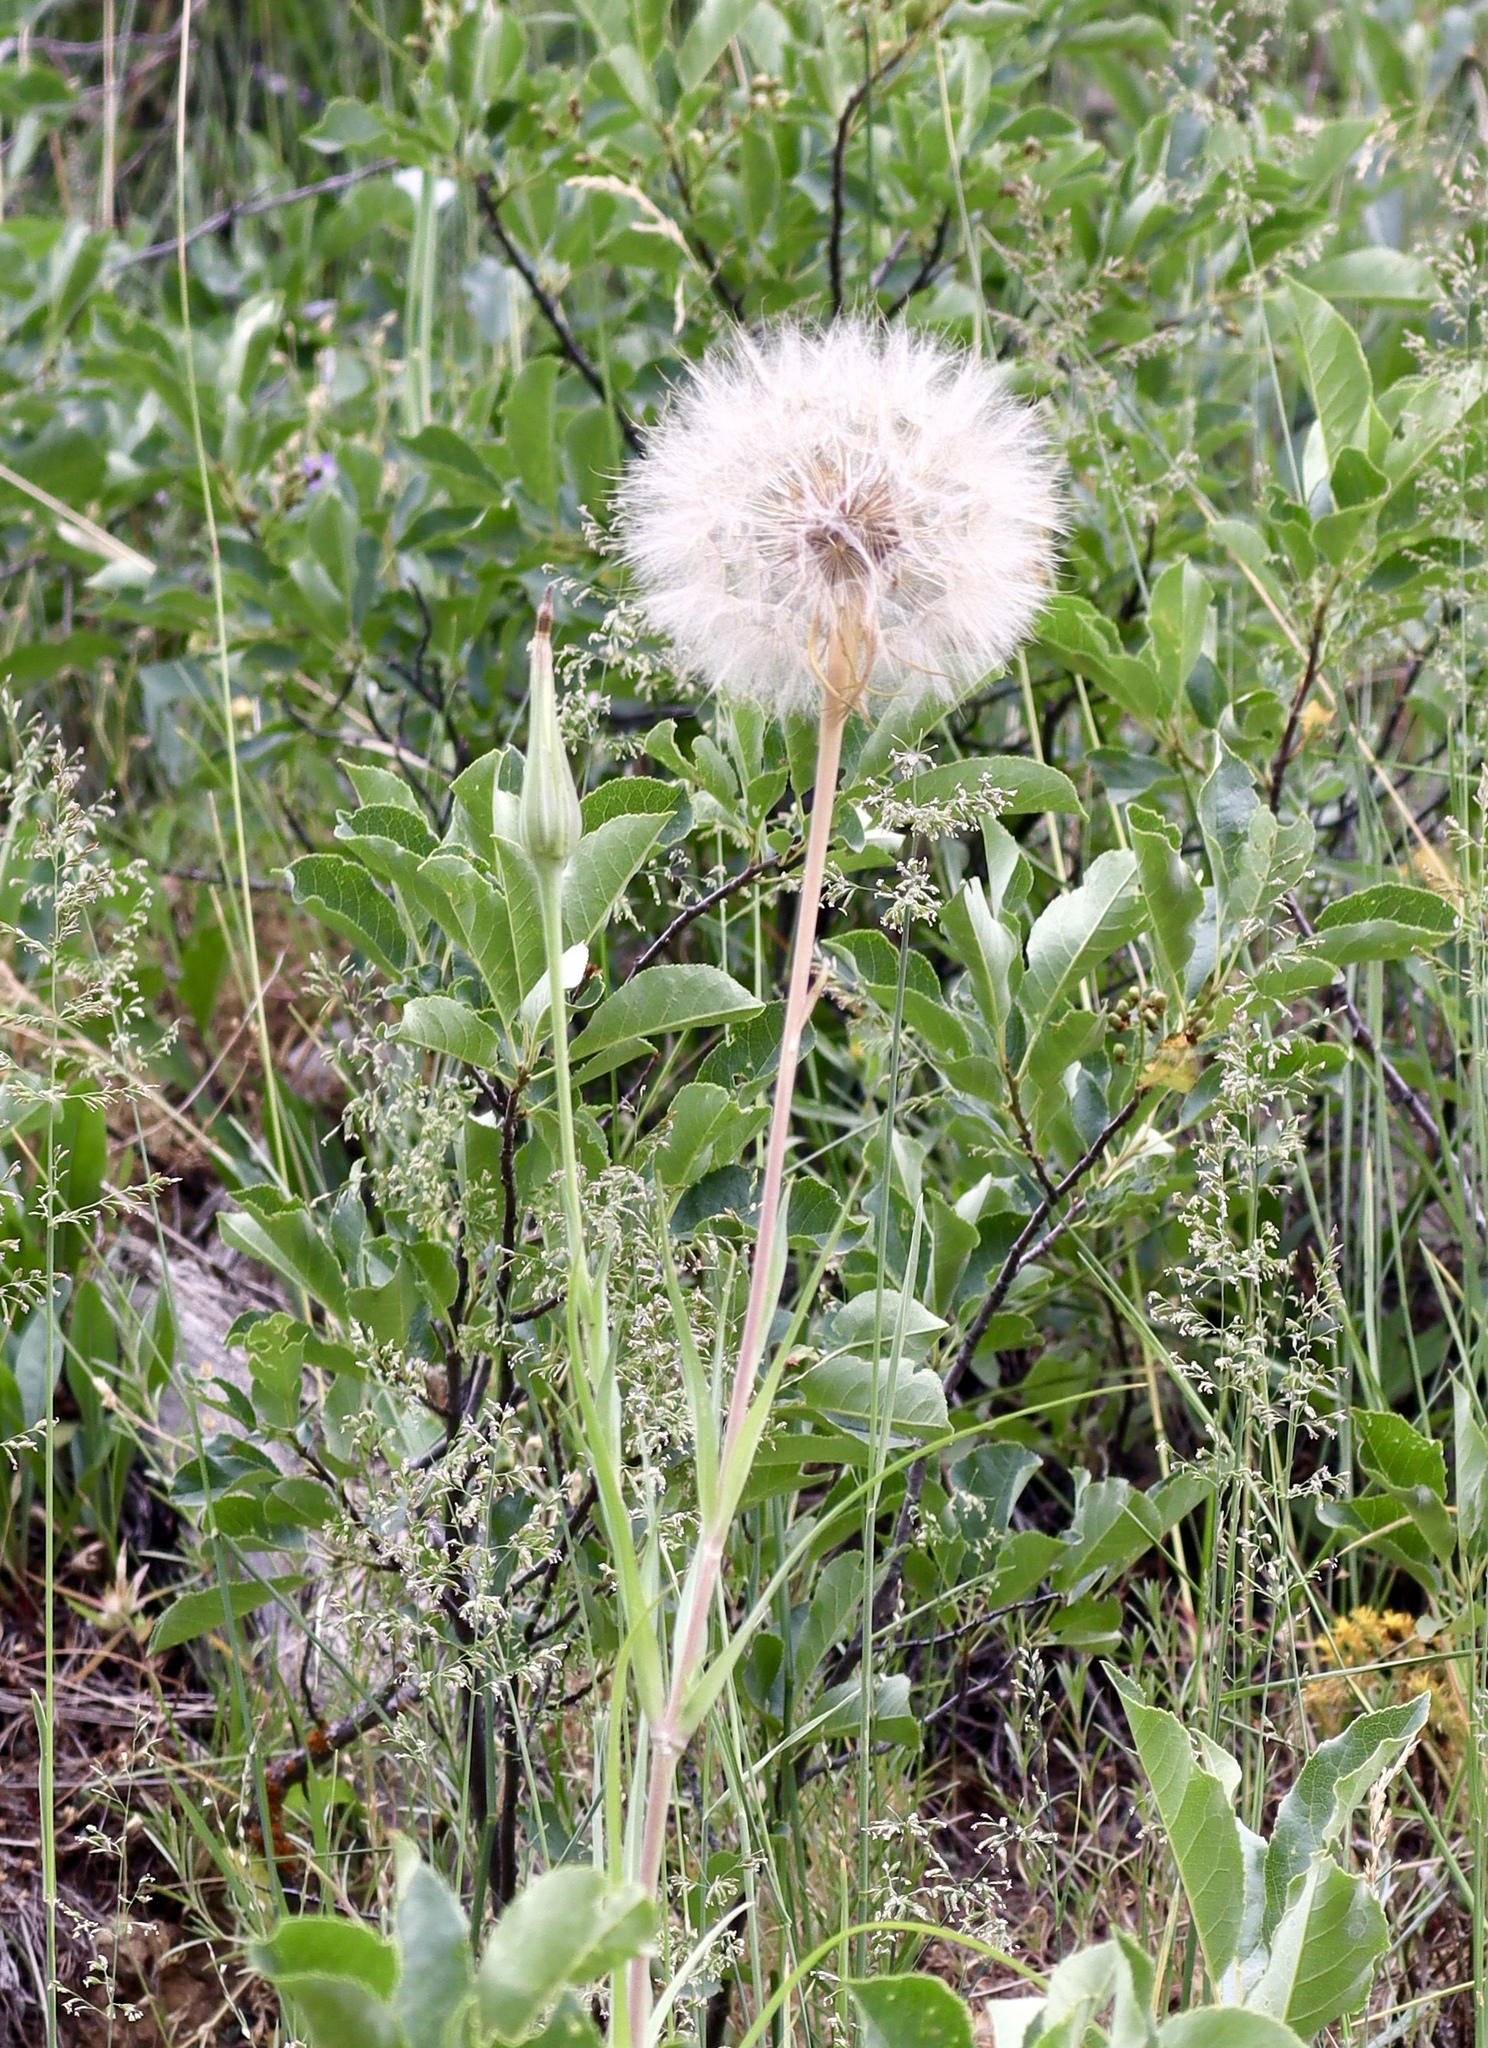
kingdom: Plantae
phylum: Tracheophyta
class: Magnoliopsida
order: Asterales
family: Asteraceae
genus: Tragopogon
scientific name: Tragopogon dubius
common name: Yellow salsify
